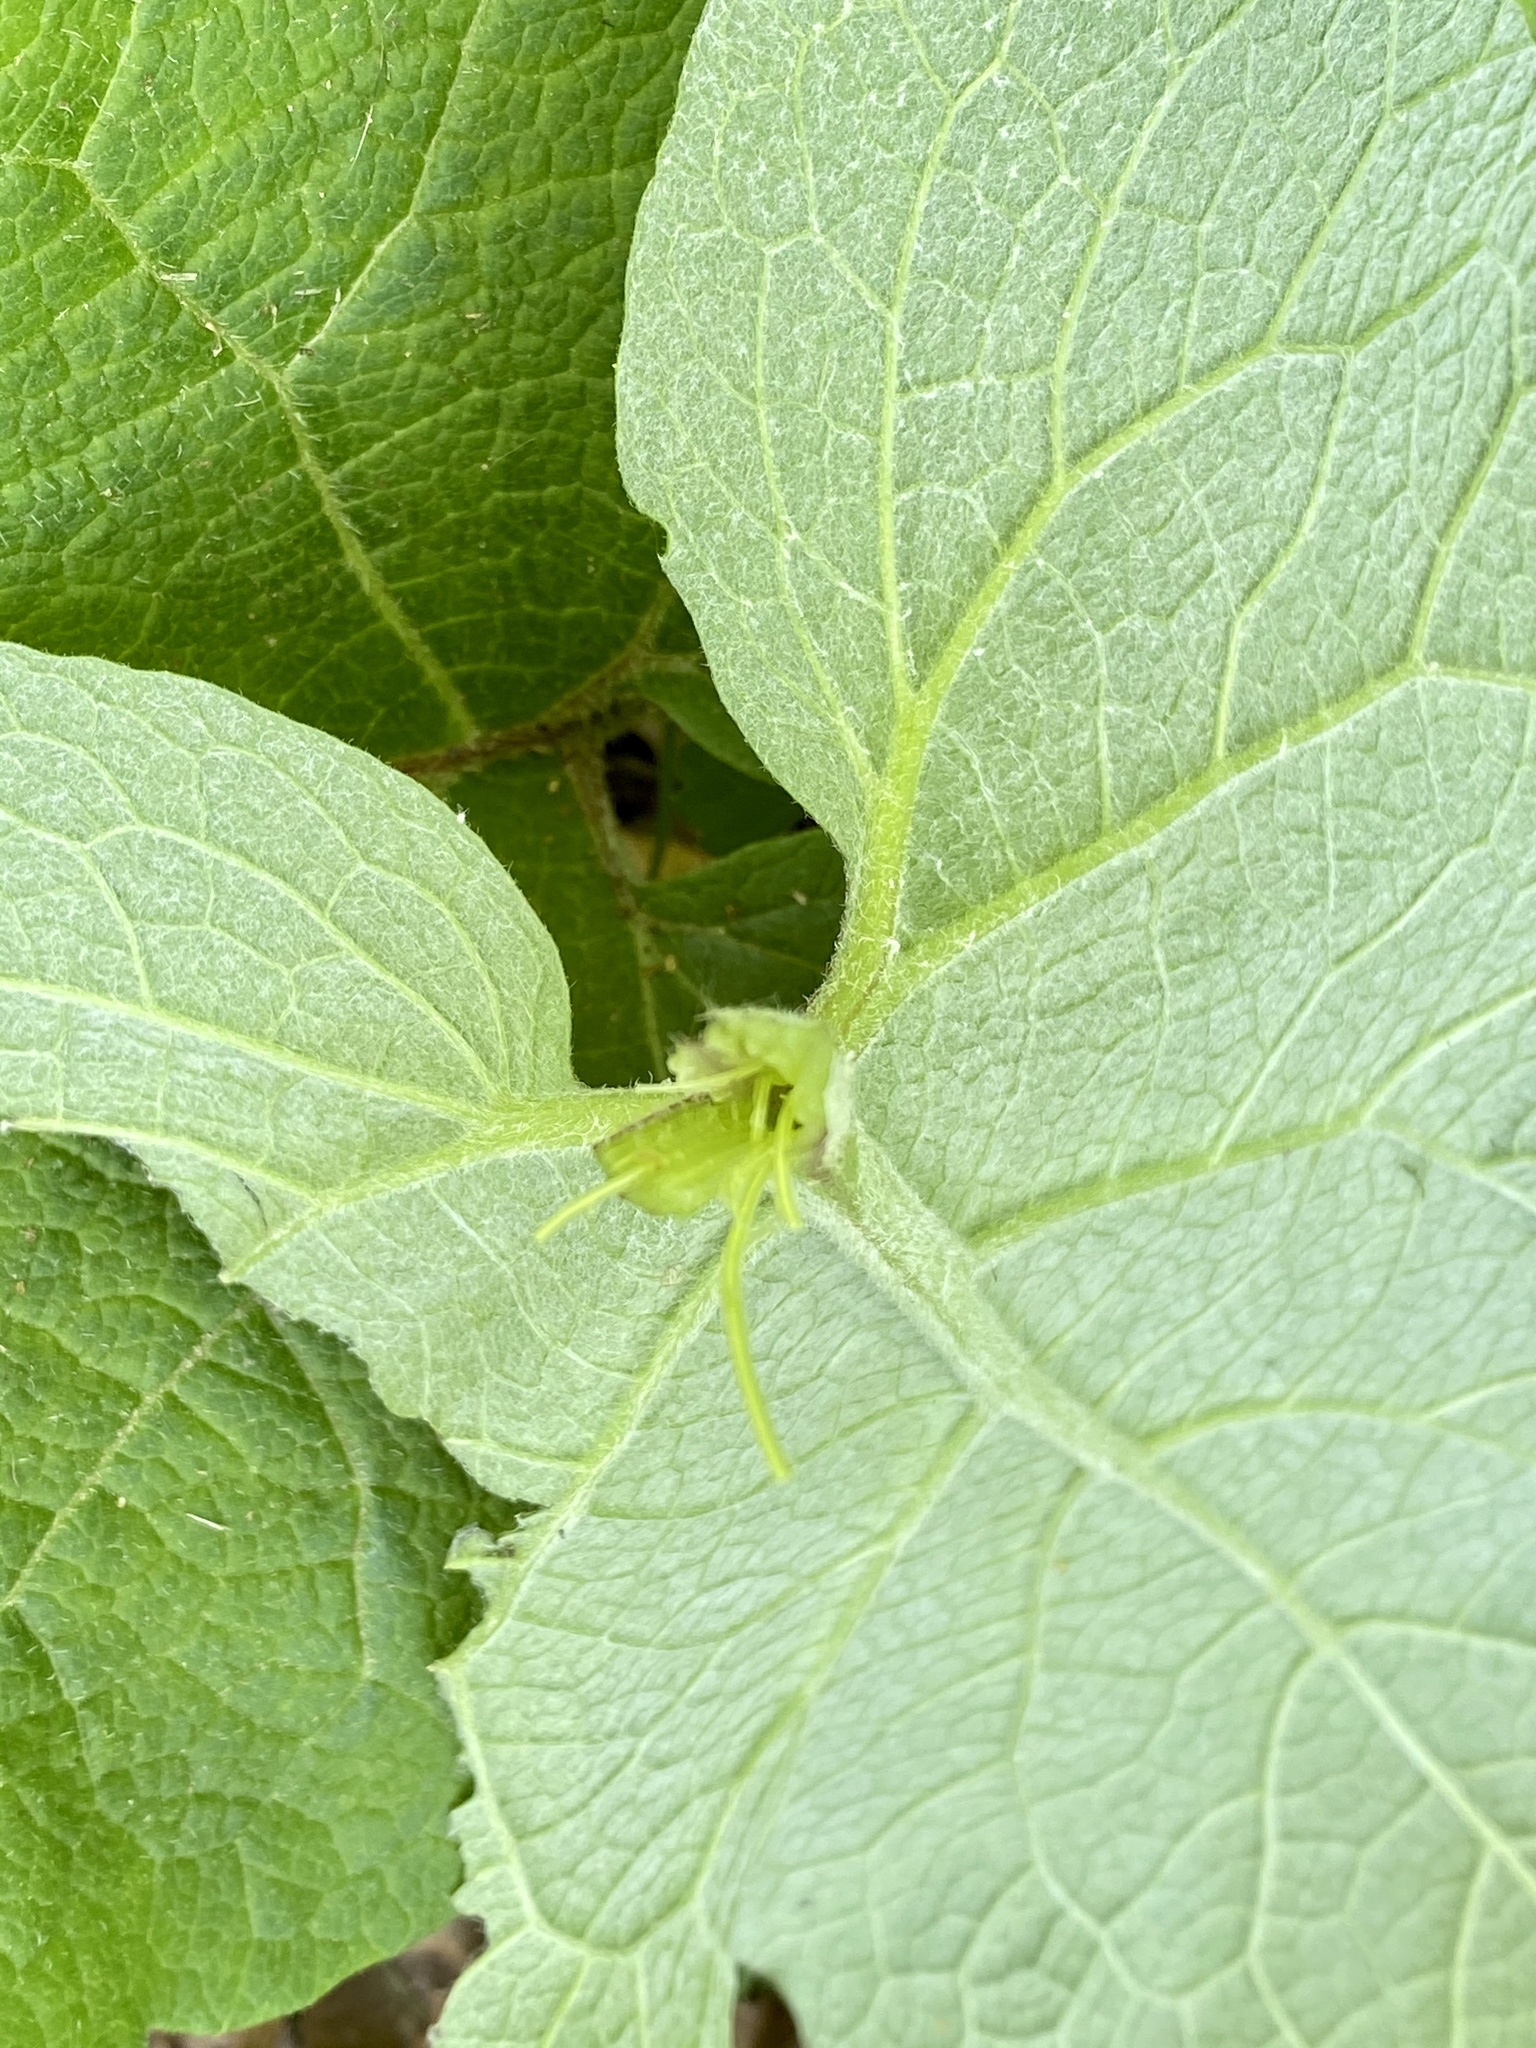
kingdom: Plantae
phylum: Tracheophyta
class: Magnoliopsida
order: Asterales
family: Asteraceae
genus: Arctium
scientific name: Arctium minus
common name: Lesser burdock
